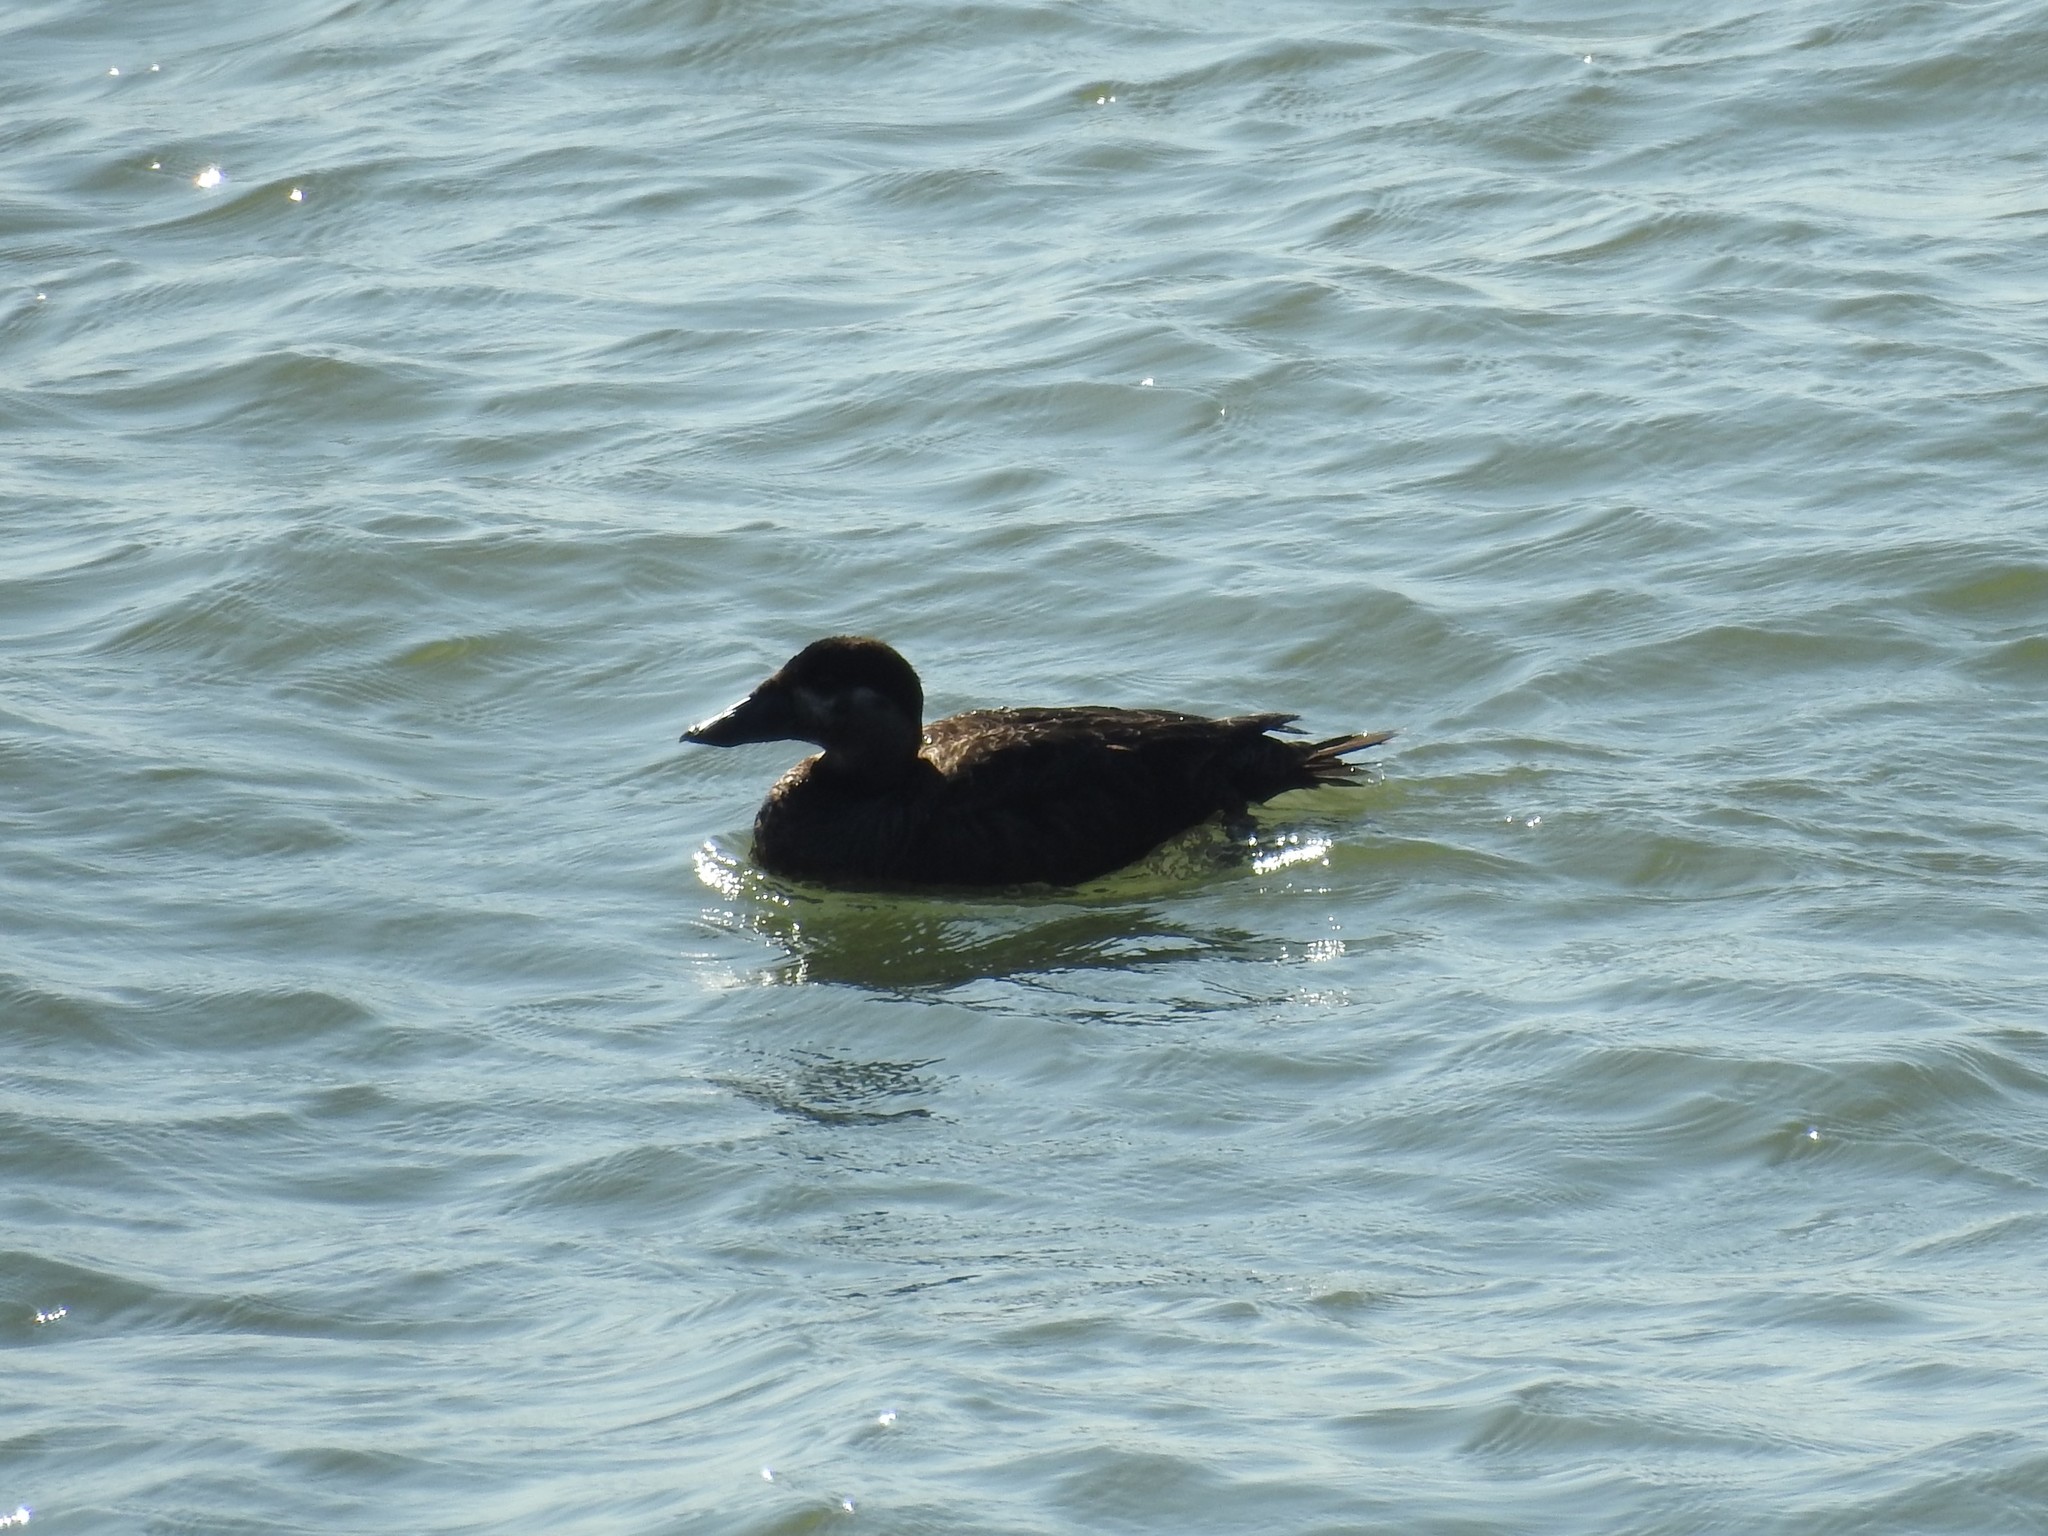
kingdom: Animalia
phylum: Chordata
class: Aves
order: Anseriformes
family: Anatidae
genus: Melanitta
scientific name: Melanitta perspicillata
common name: Surf scoter
